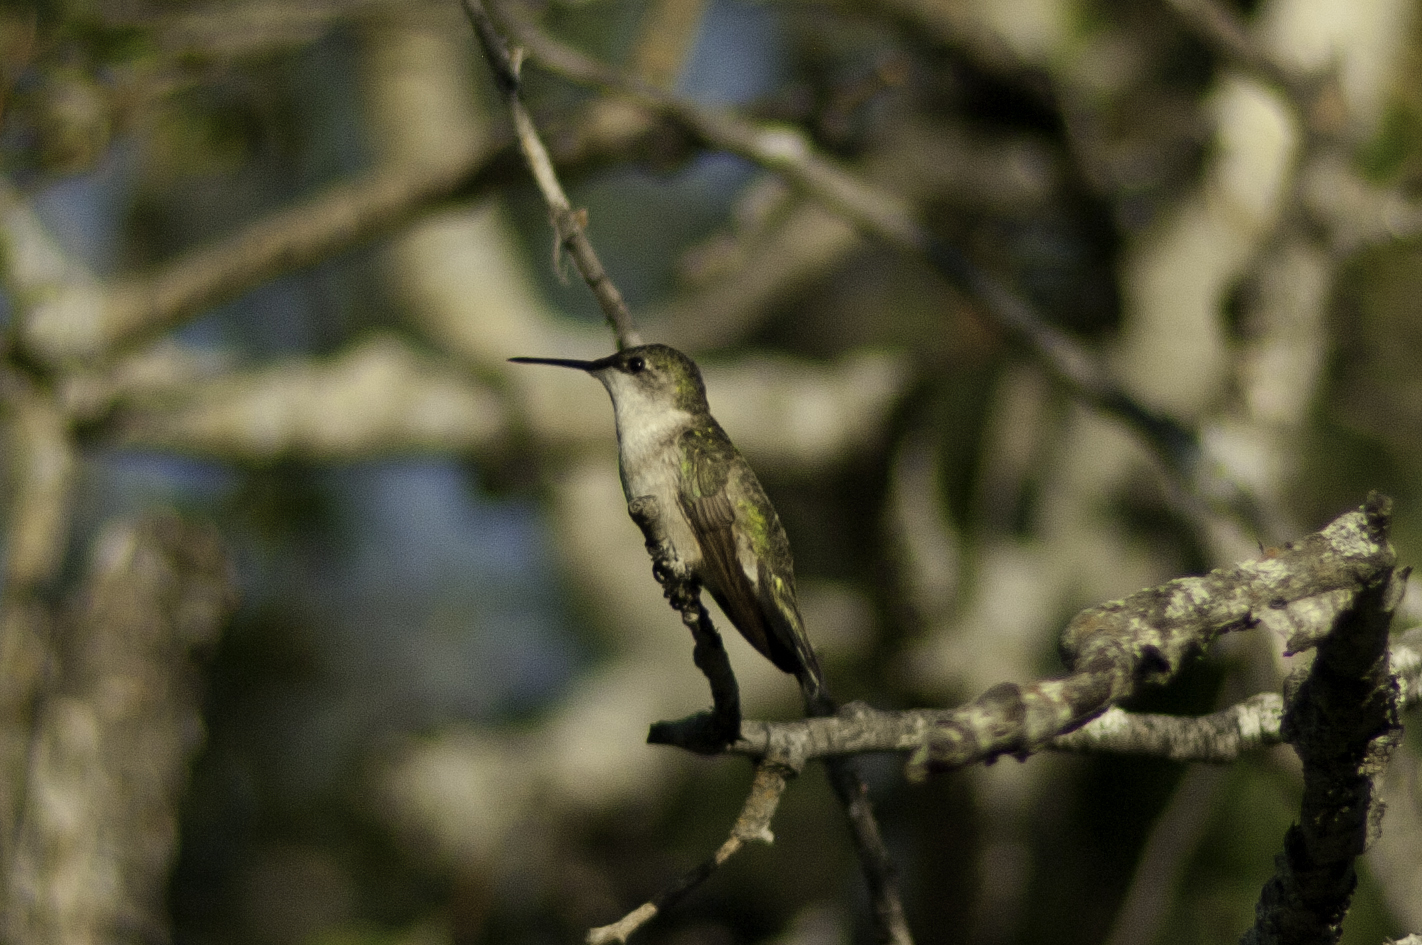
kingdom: Animalia
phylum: Chordata
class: Aves
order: Apodiformes
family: Trochilidae
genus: Archilochus
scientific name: Archilochus colubris
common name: Ruby-throated hummingbird
